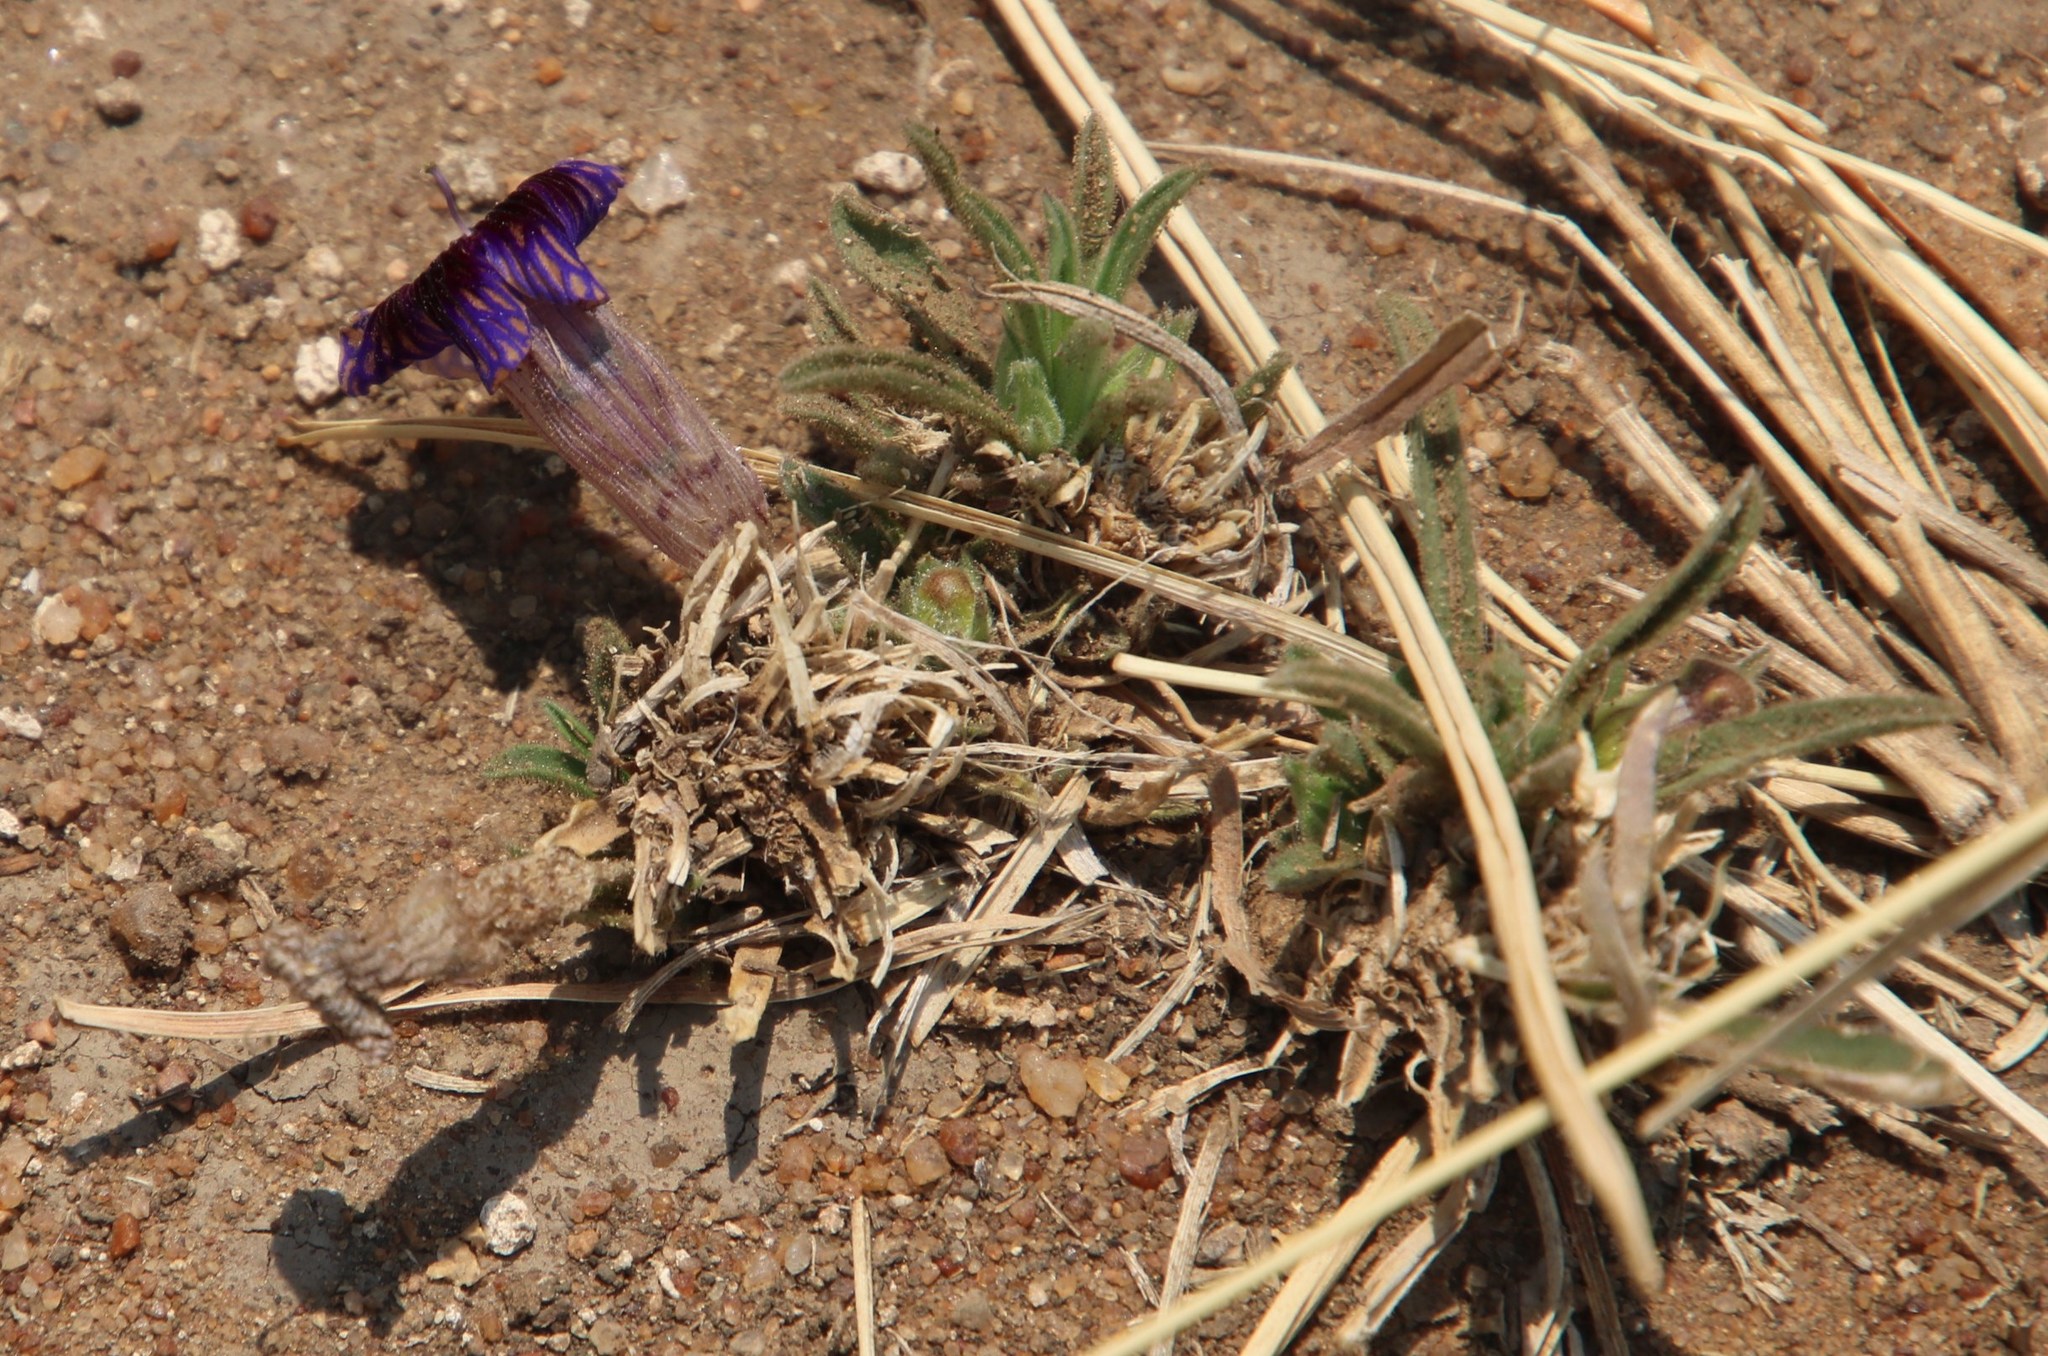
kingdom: Plantae
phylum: Tracheophyta
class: Magnoliopsida
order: Lamiales
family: Scrophulariaceae
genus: Aptosimum
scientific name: Aptosimum lineare
